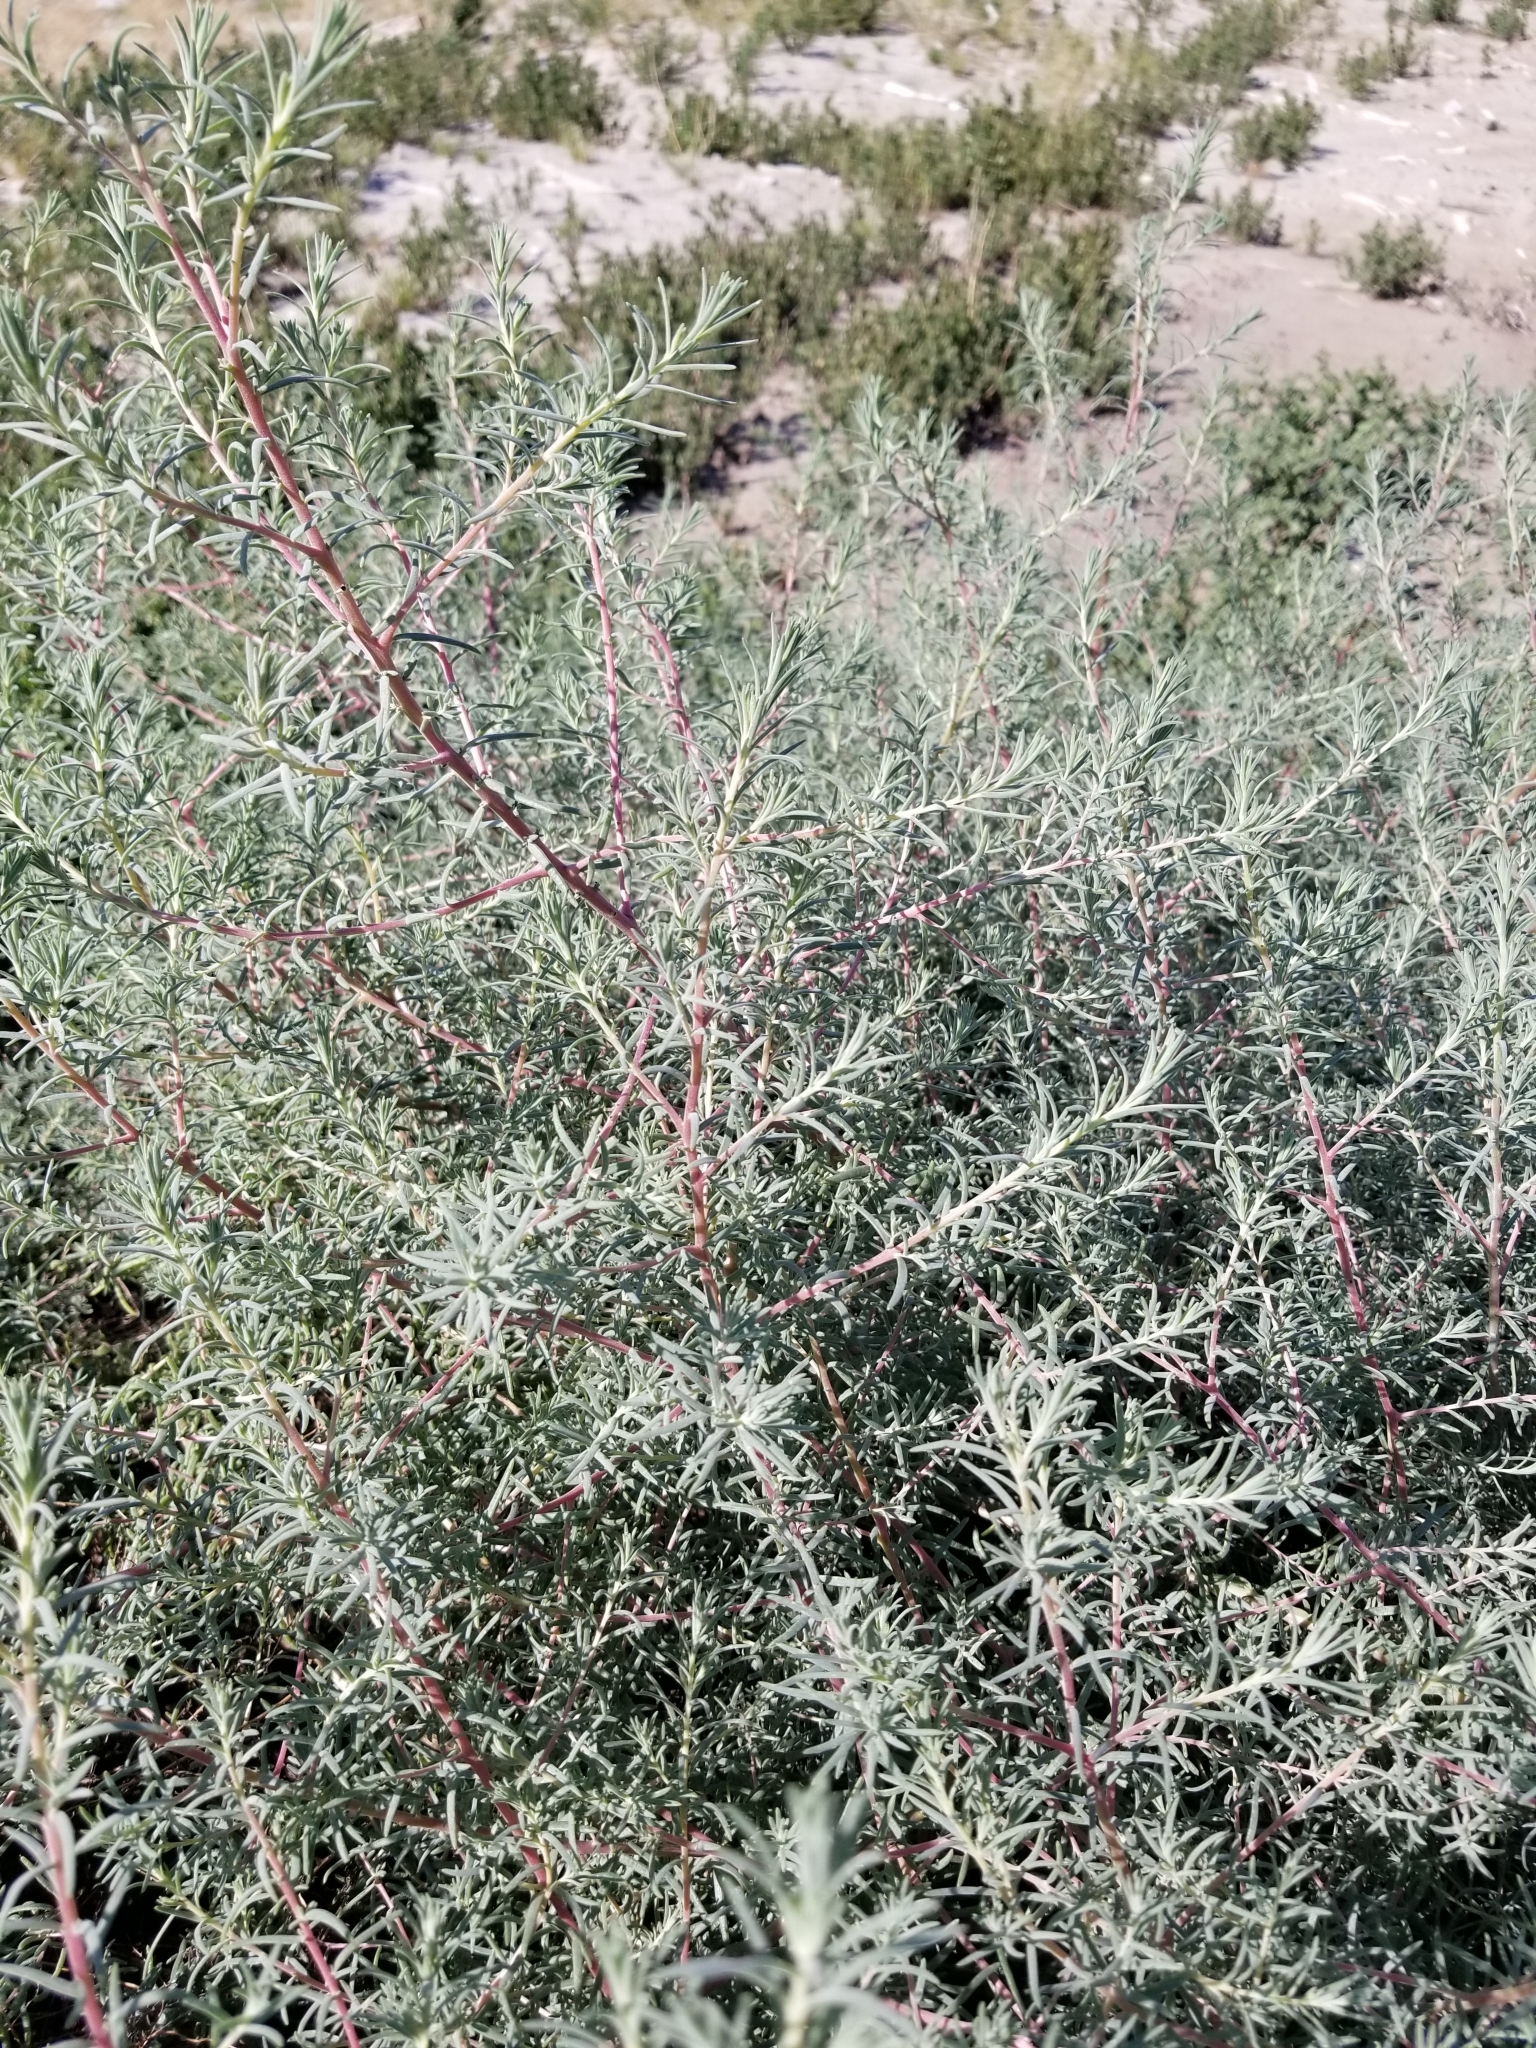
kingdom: Plantae
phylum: Tracheophyta
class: Magnoliopsida
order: Caryophyllales
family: Amaranthaceae
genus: Suaeda
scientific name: Suaeda nigra
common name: Bush seepweed
